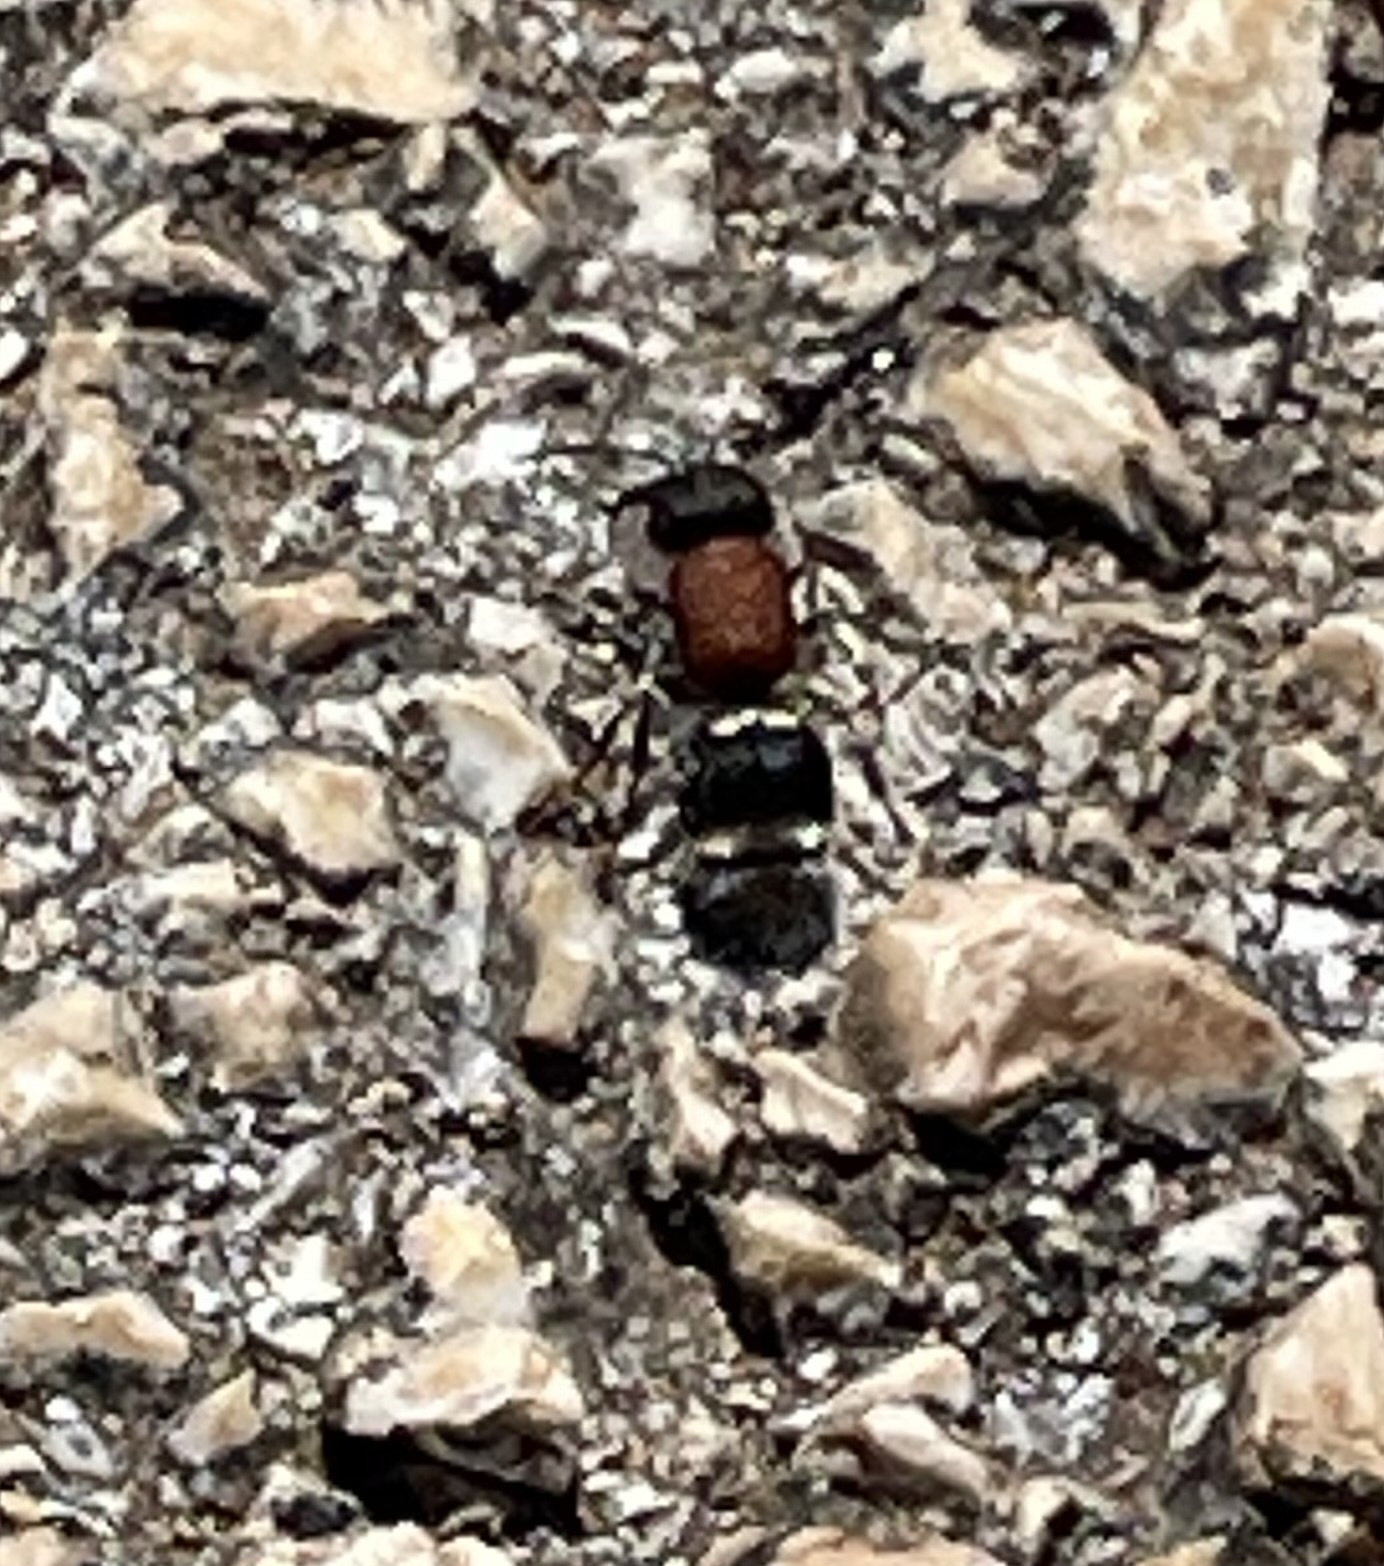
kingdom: Animalia
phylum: Arthropoda
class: Insecta
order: Hymenoptera
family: Mutillidae
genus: Tropidotilla
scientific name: Tropidotilla litoralis
